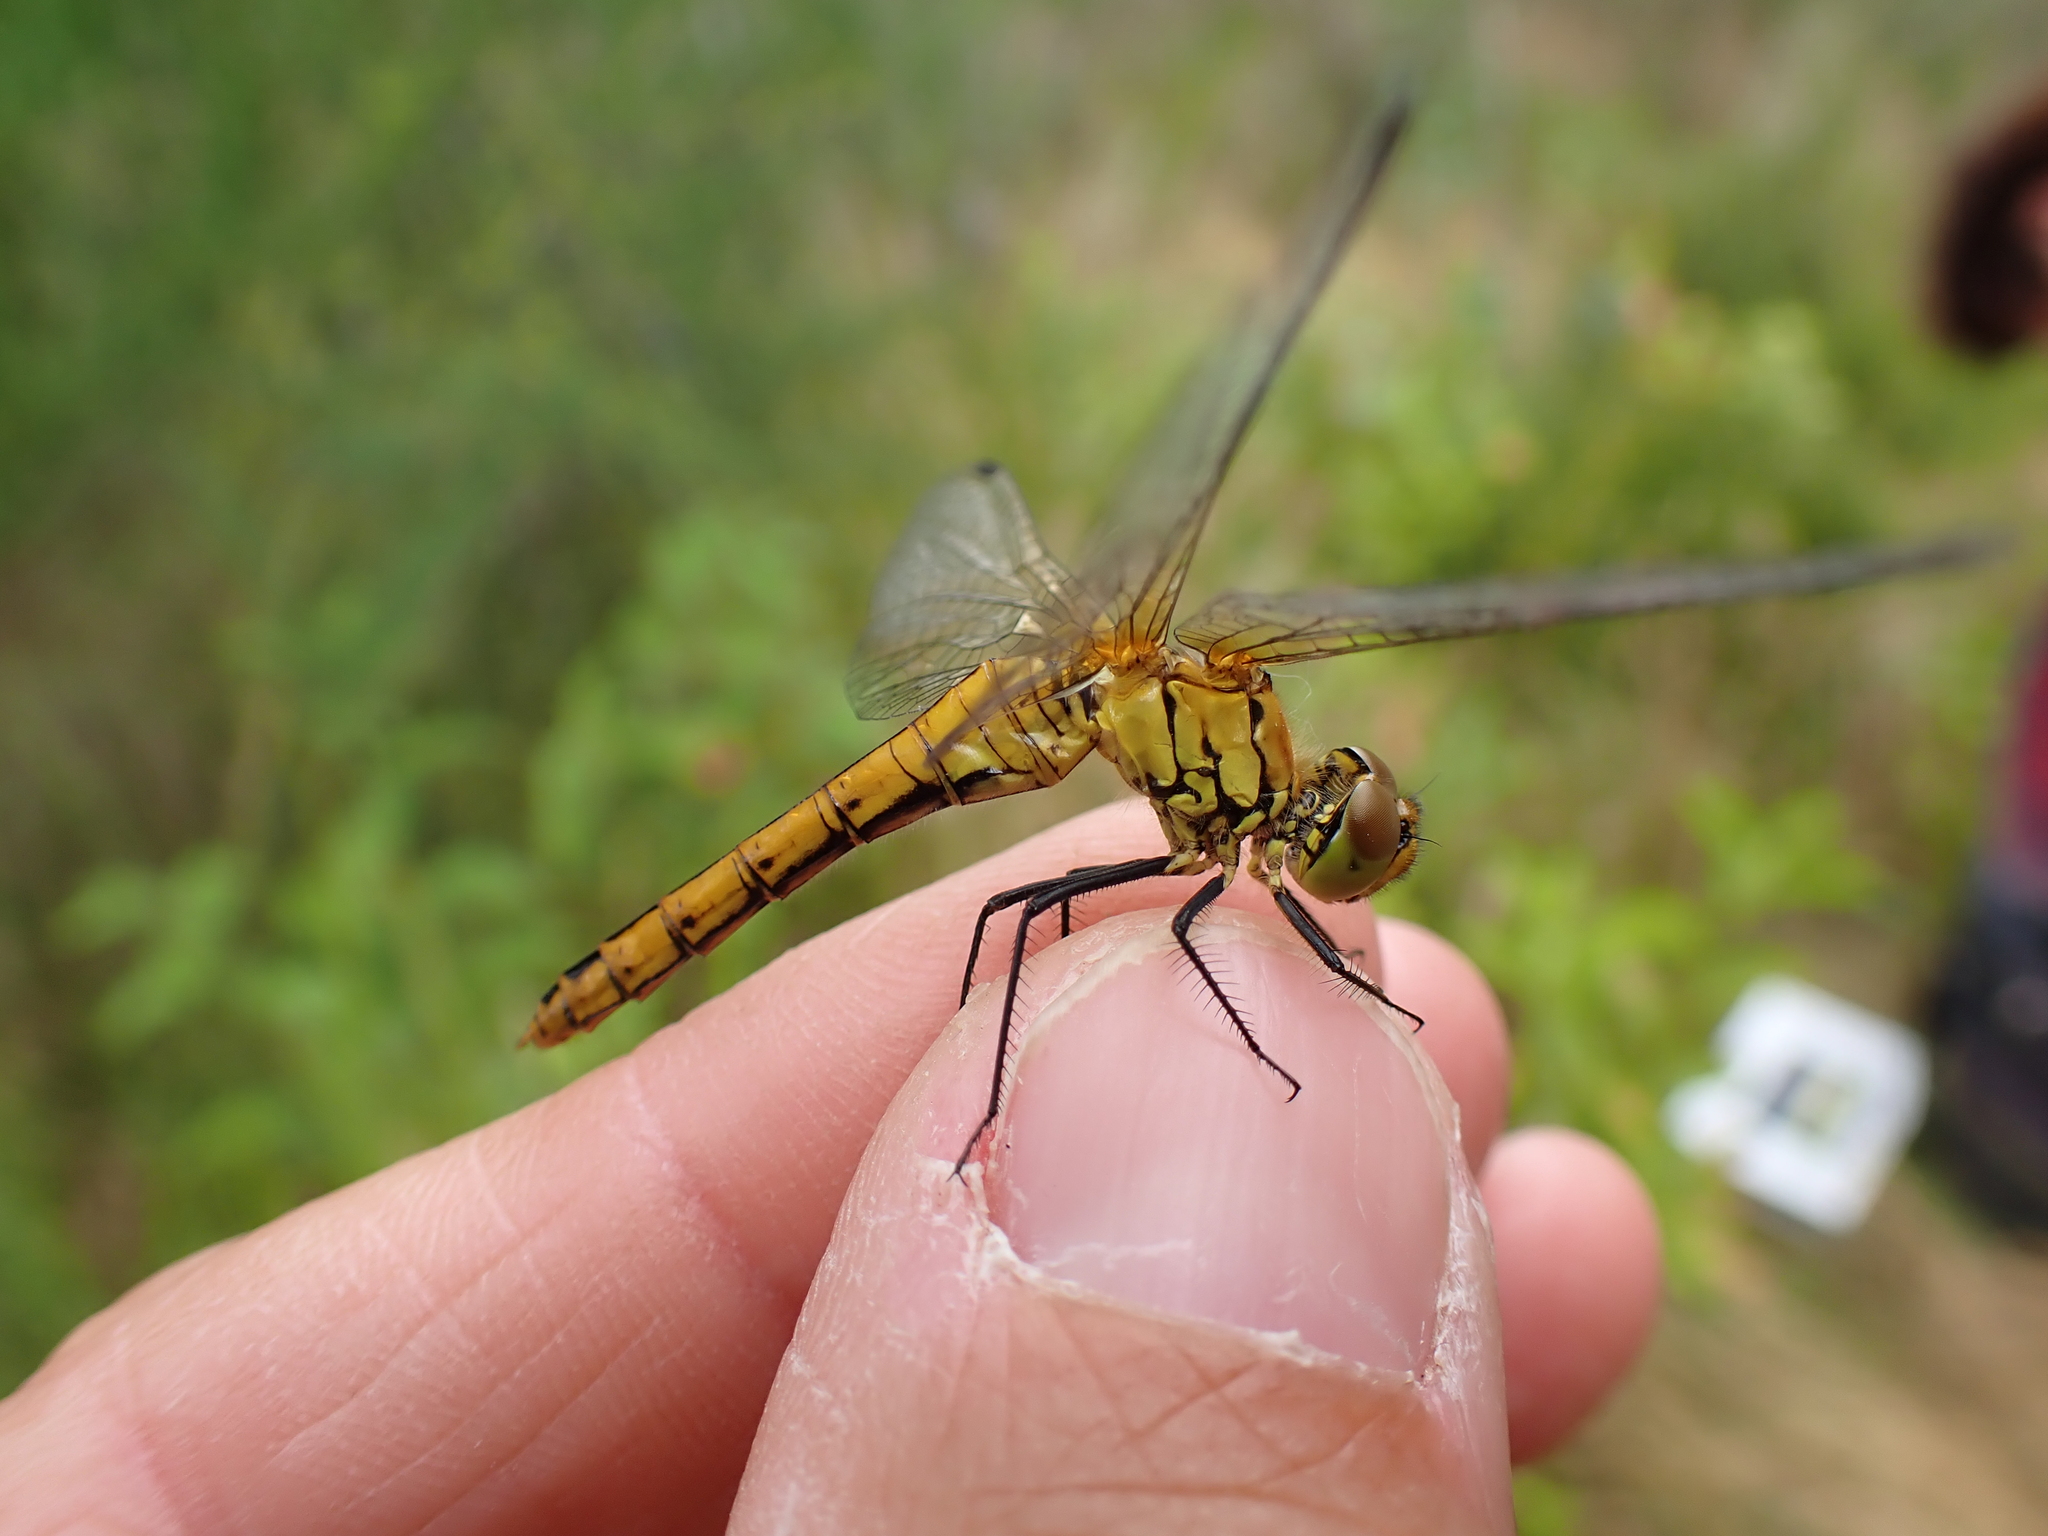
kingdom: Animalia
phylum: Arthropoda
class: Insecta
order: Odonata
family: Libellulidae
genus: Sympetrum
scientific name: Sympetrum sanguineum
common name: Ruddy darter
